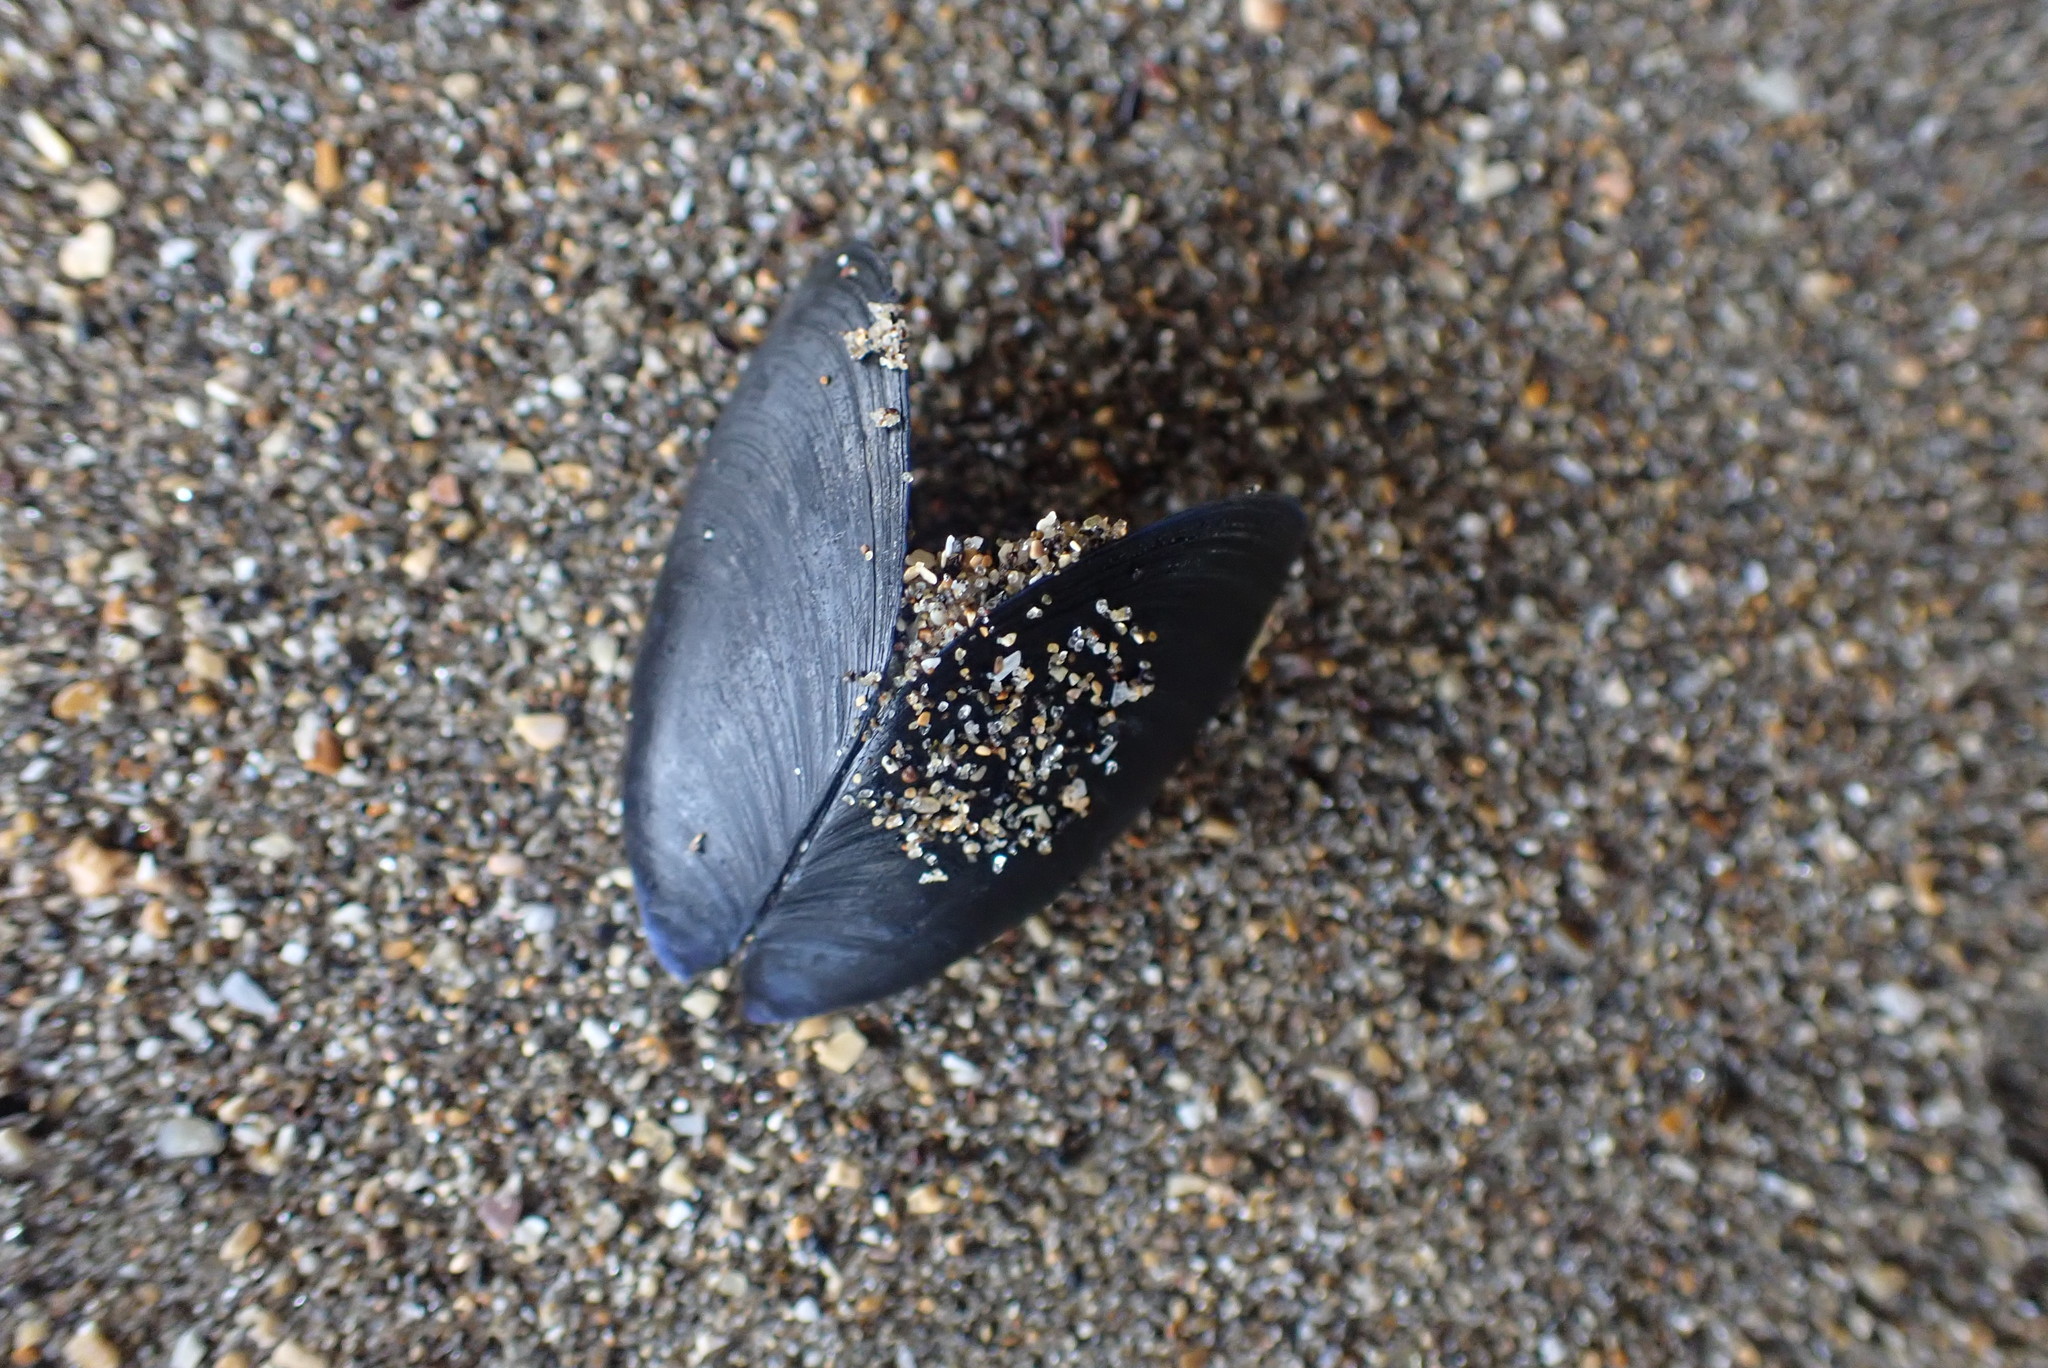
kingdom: Animalia
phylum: Mollusca
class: Bivalvia
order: Mytilida
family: Mytilidae
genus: Mytilus
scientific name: Mytilus planulatus
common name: Australian mussel
